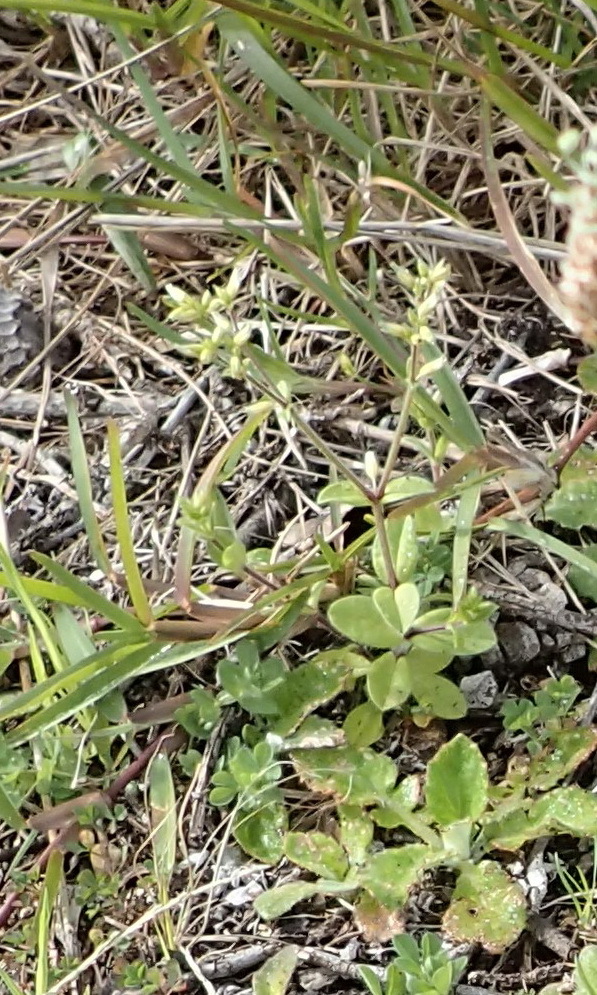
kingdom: Plantae
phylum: Tracheophyta
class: Magnoliopsida
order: Caryophyllales
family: Caryophyllaceae
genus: Cerastium
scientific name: Cerastium glomeratum
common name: Sticky chickweed
